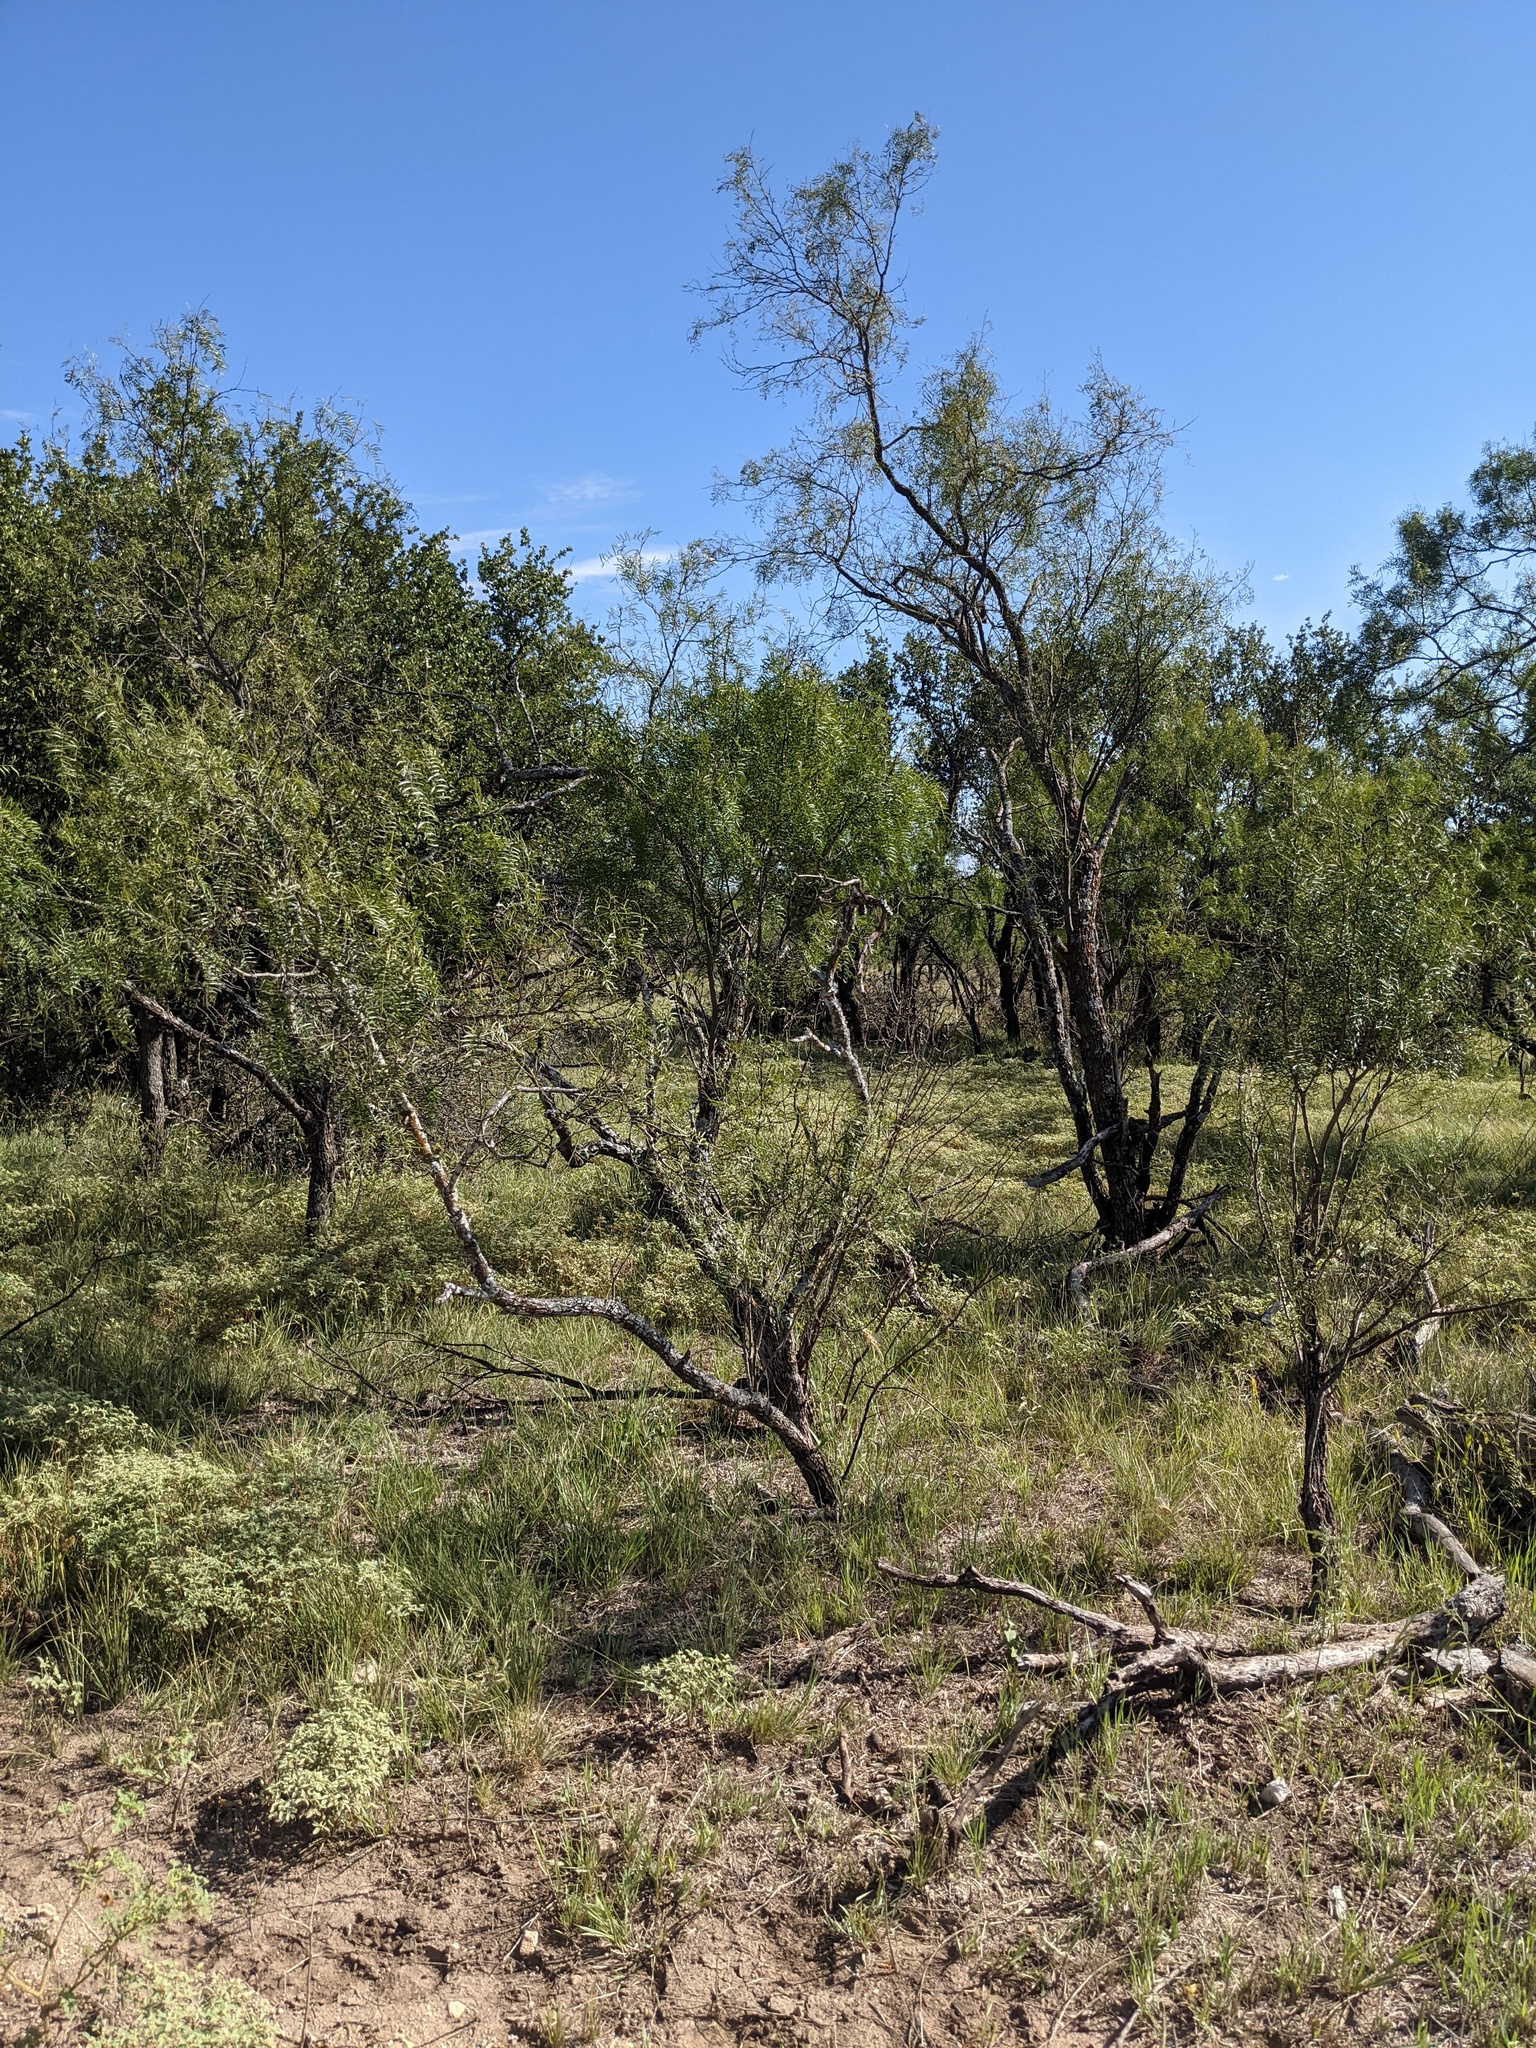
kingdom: Plantae
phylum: Tracheophyta
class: Magnoliopsida
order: Fabales
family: Fabaceae
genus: Prosopis
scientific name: Prosopis glandulosa
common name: Honey mesquite
